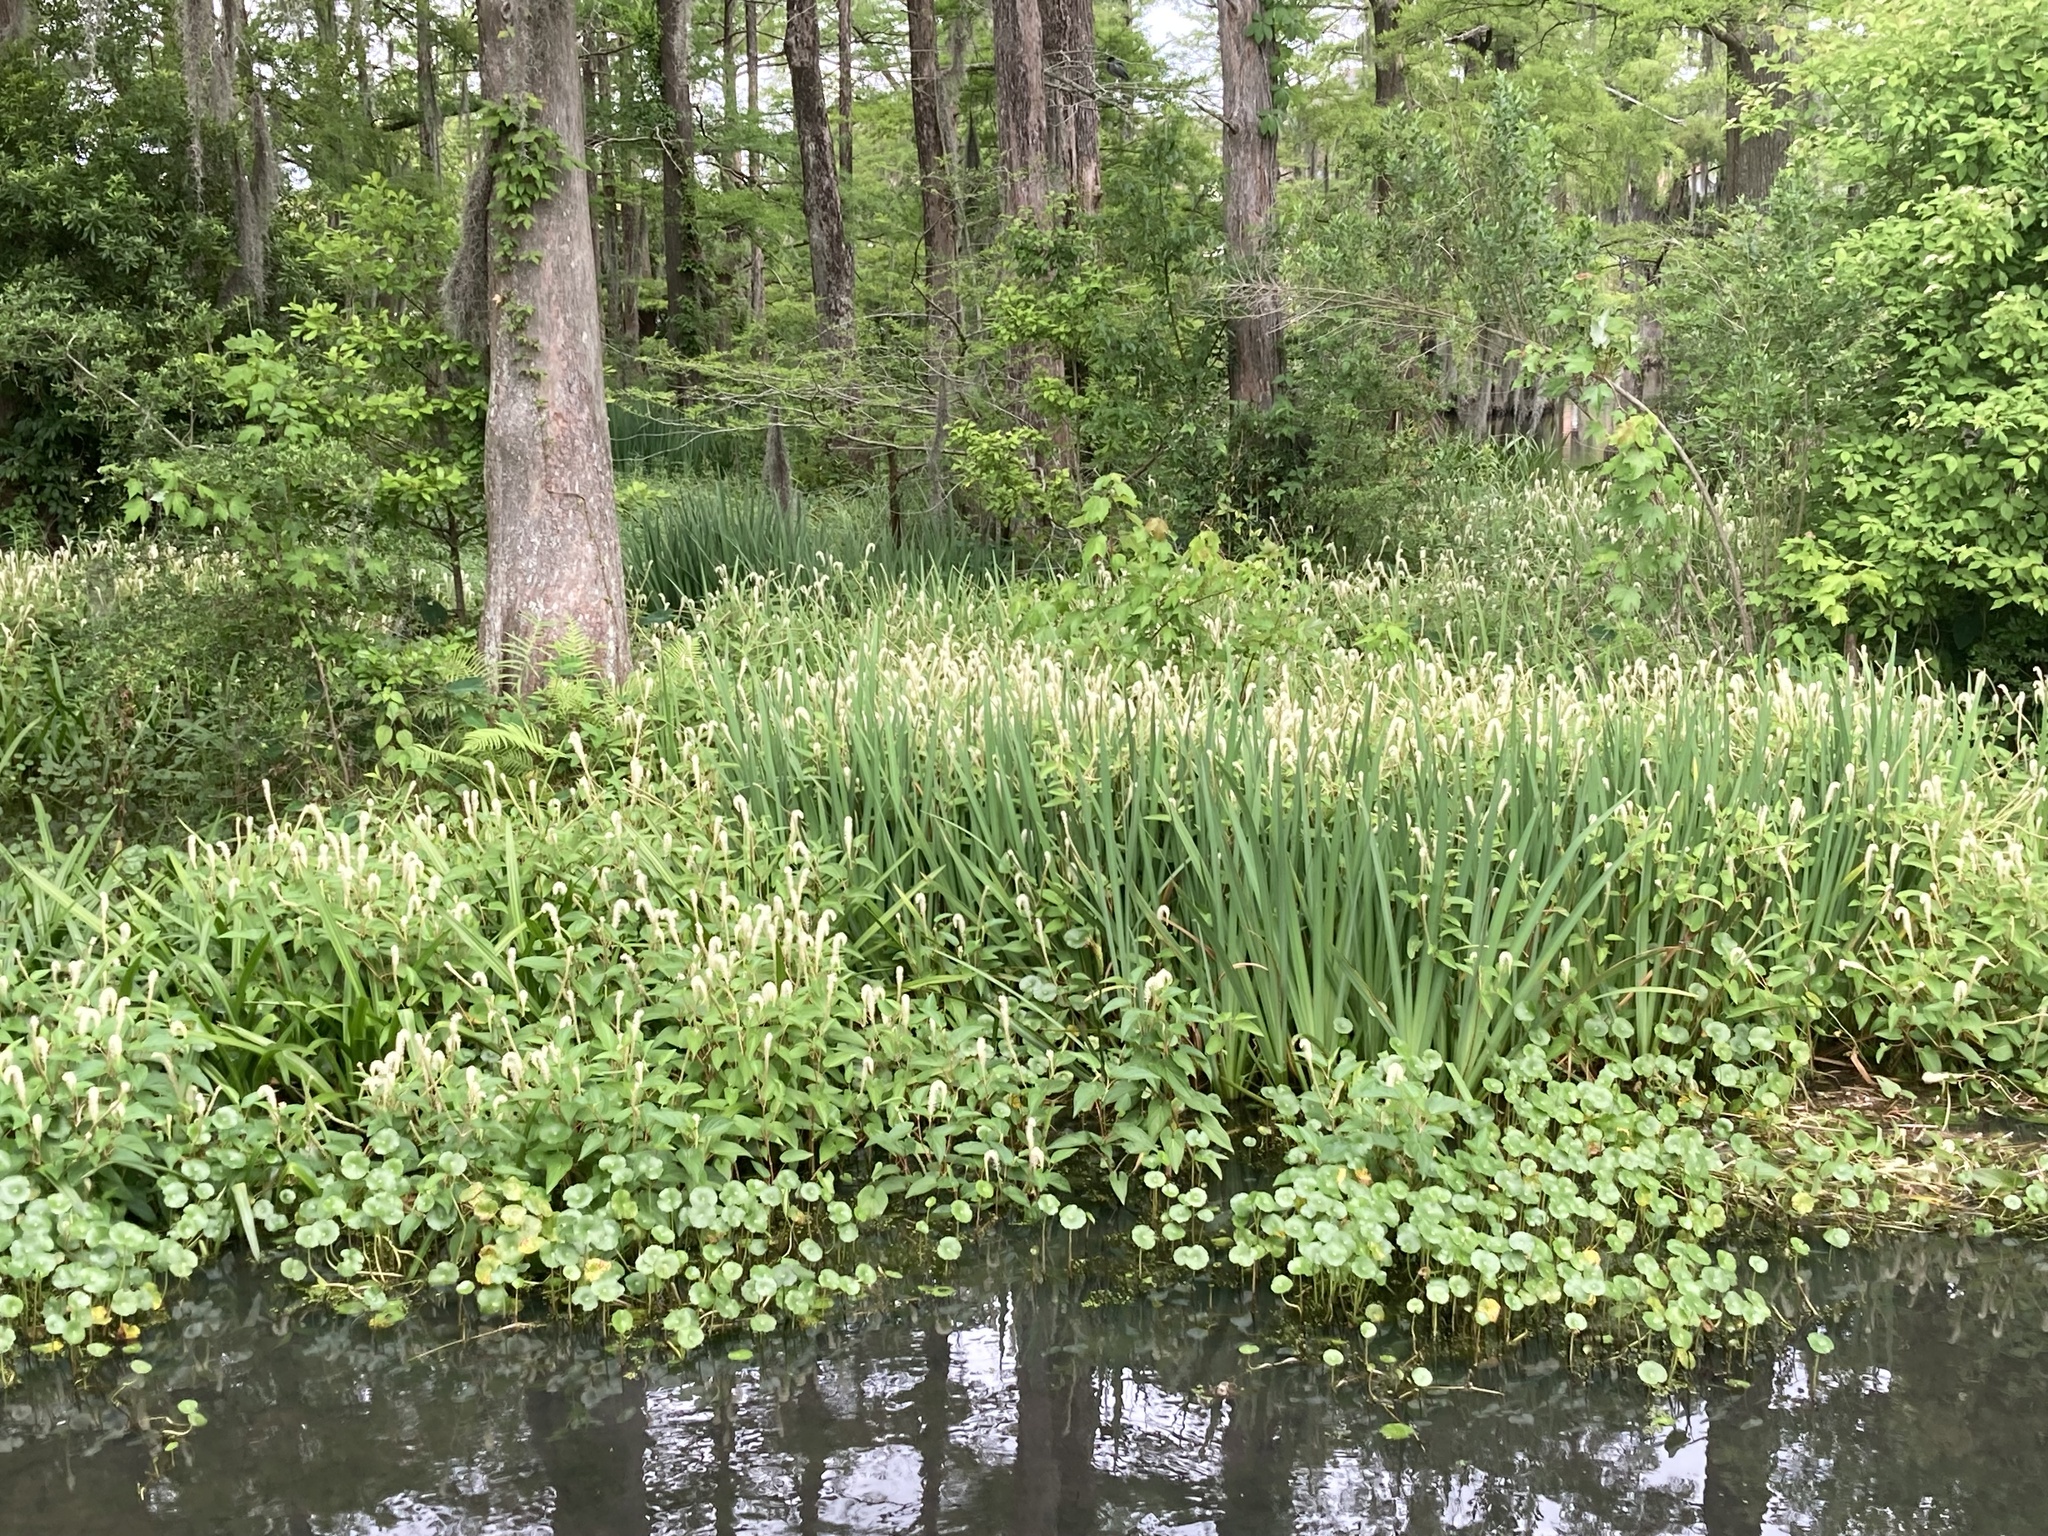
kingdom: Plantae
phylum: Tracheophyta
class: Magnoliopsida
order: Piperales
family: Saururaceae
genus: Saururus
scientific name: Saururus cernuus
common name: Lizard's-tail
